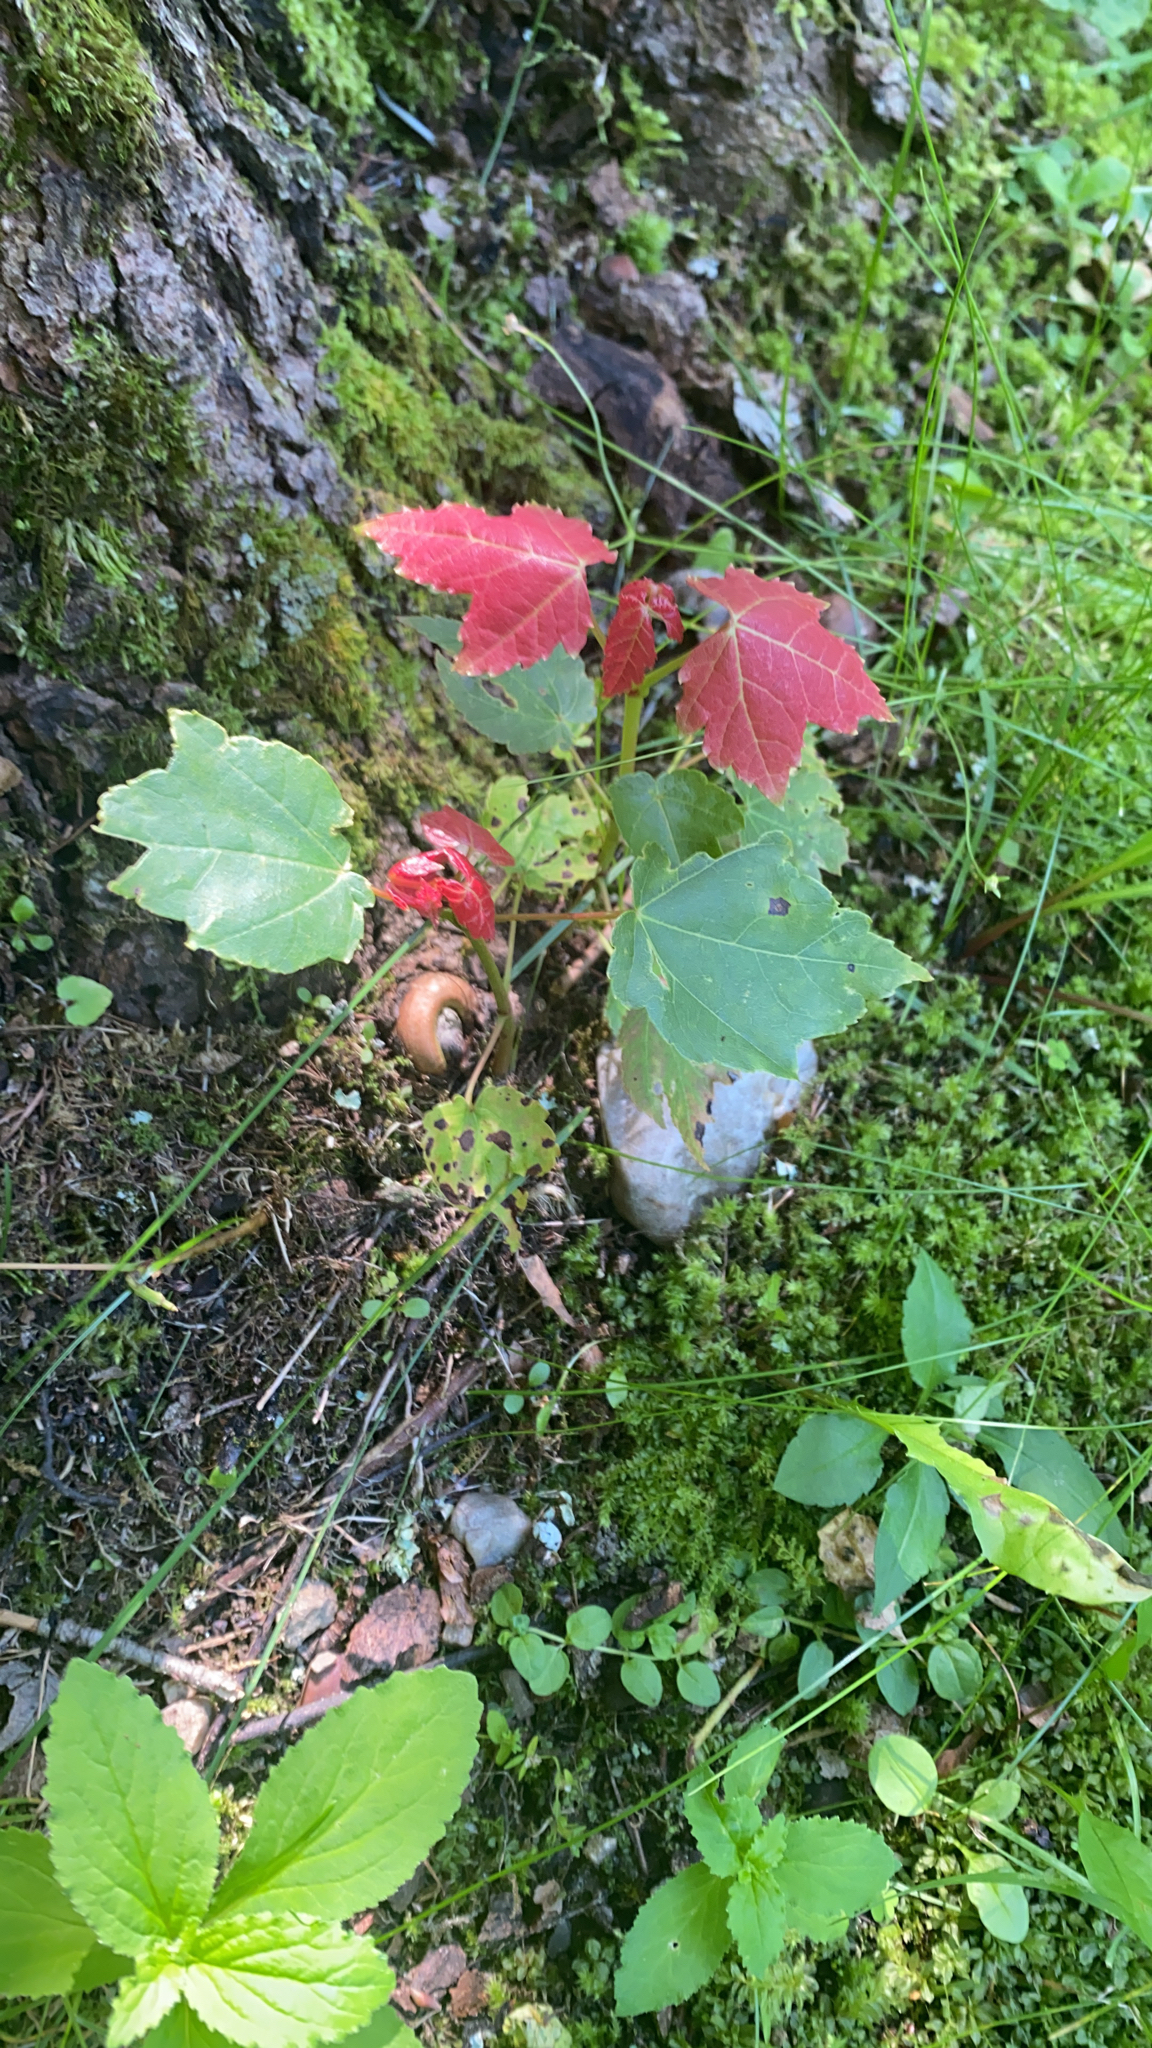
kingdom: Plantae
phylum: Tracheophyta
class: Magnoliopsida
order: Sapindales
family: Sapindaceae
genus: Acer
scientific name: Acer rubrum
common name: Red maple
